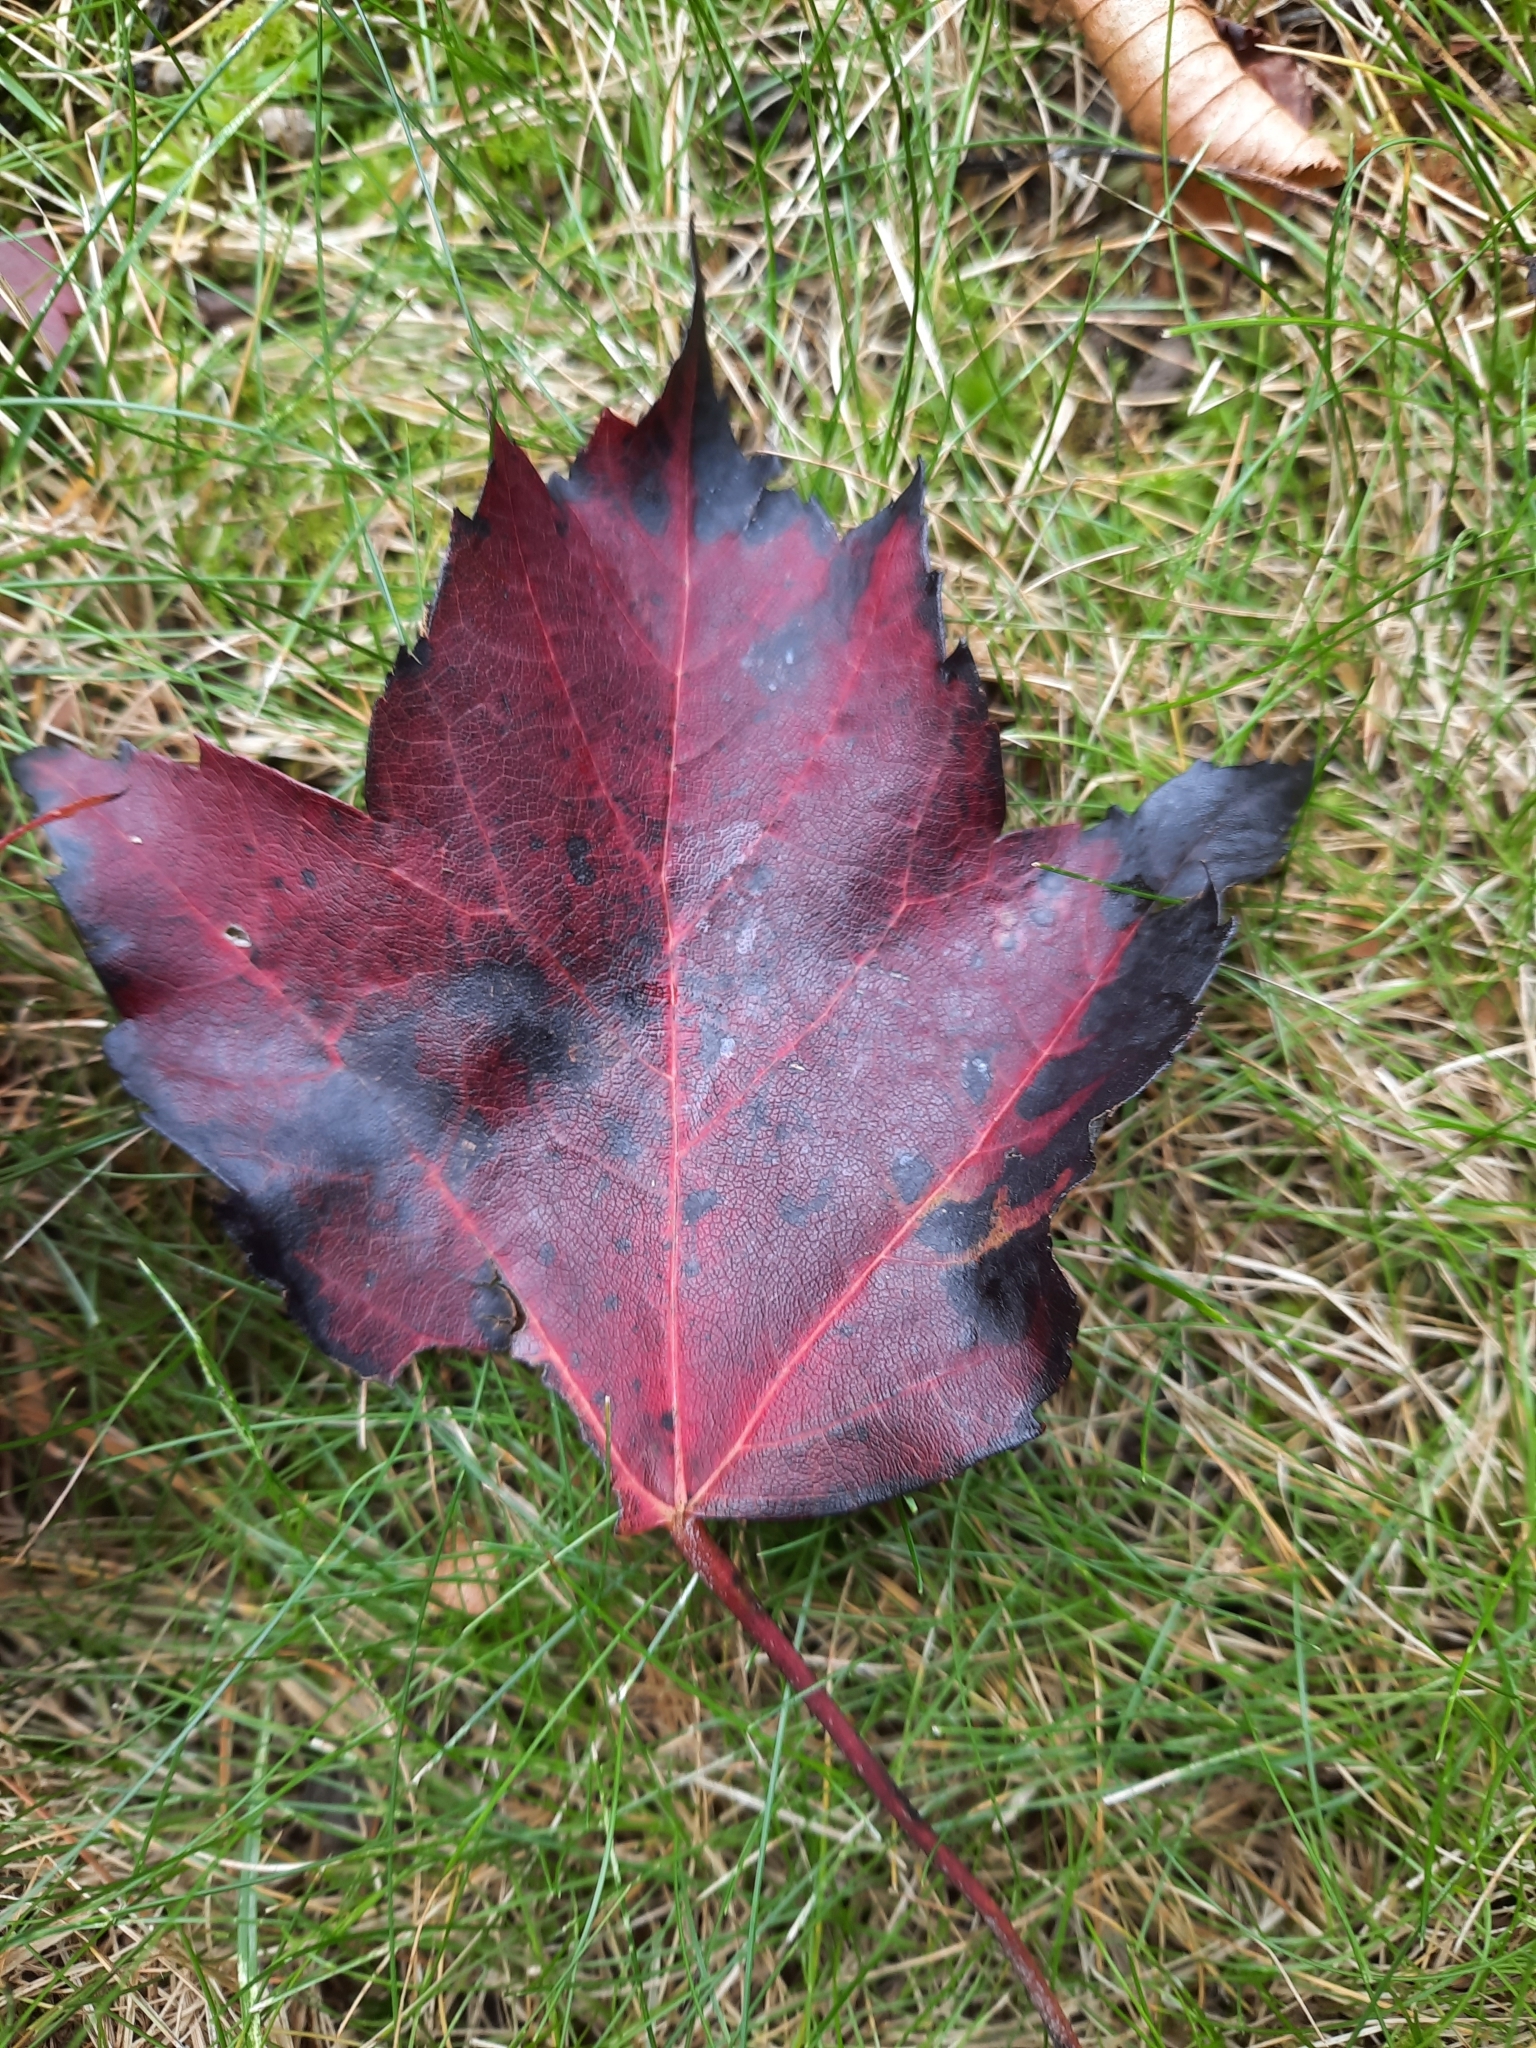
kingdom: Plantae
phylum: Tracheophyta
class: Magnoliopsida
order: Sapindales
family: Sapindaceae
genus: Acer
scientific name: Acer rubrum
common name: Red maple
